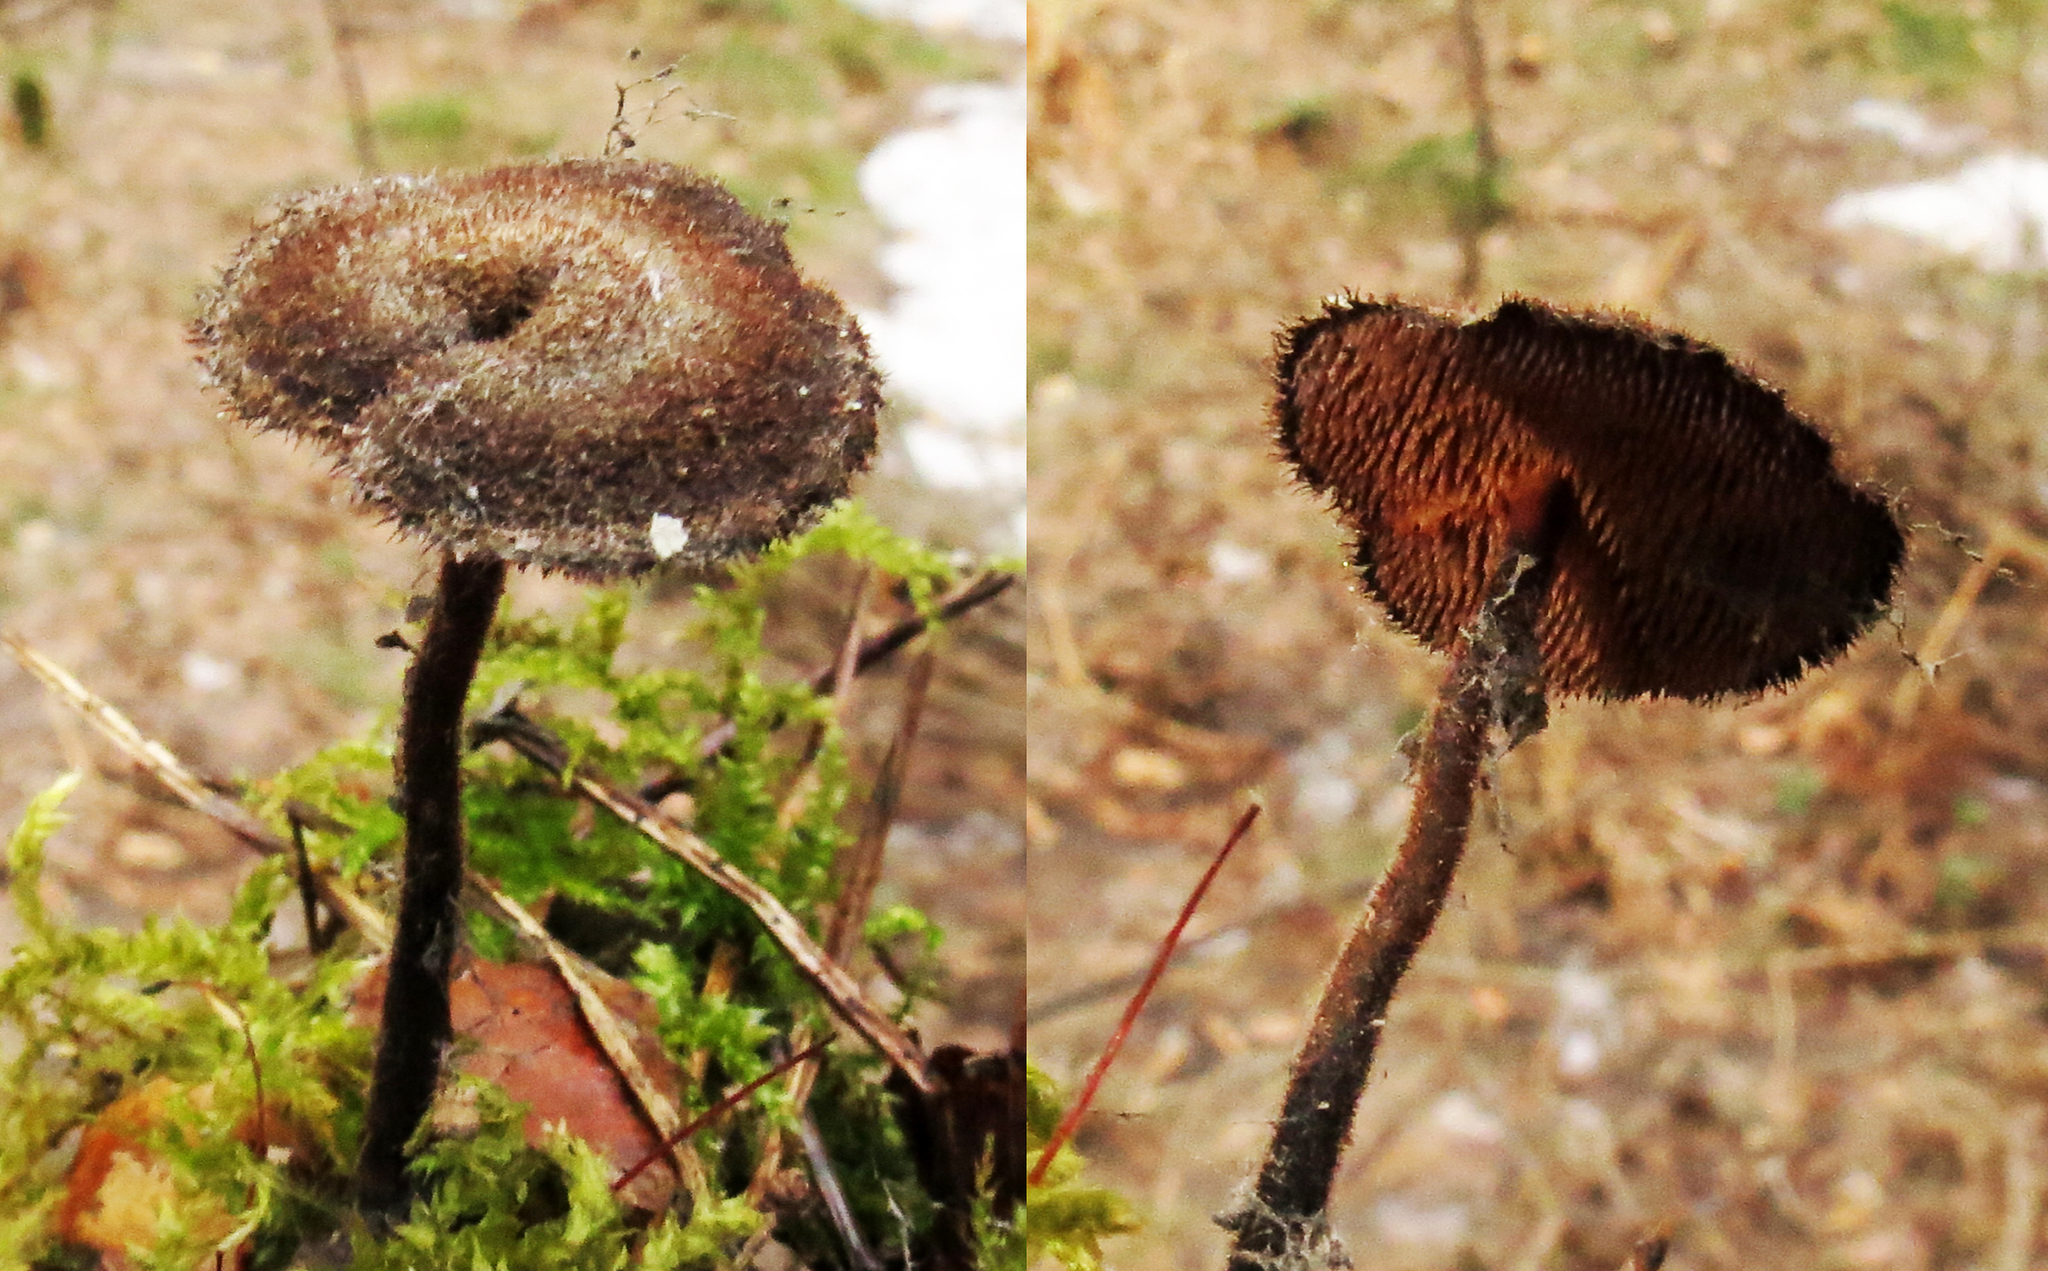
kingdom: Fungi
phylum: Basidiomycota
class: Agaricomycetes
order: Russulales
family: Auriscalpiaceae
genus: Auriscalpium
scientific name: Auriscalpium vulgare
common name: Earpick fungus
